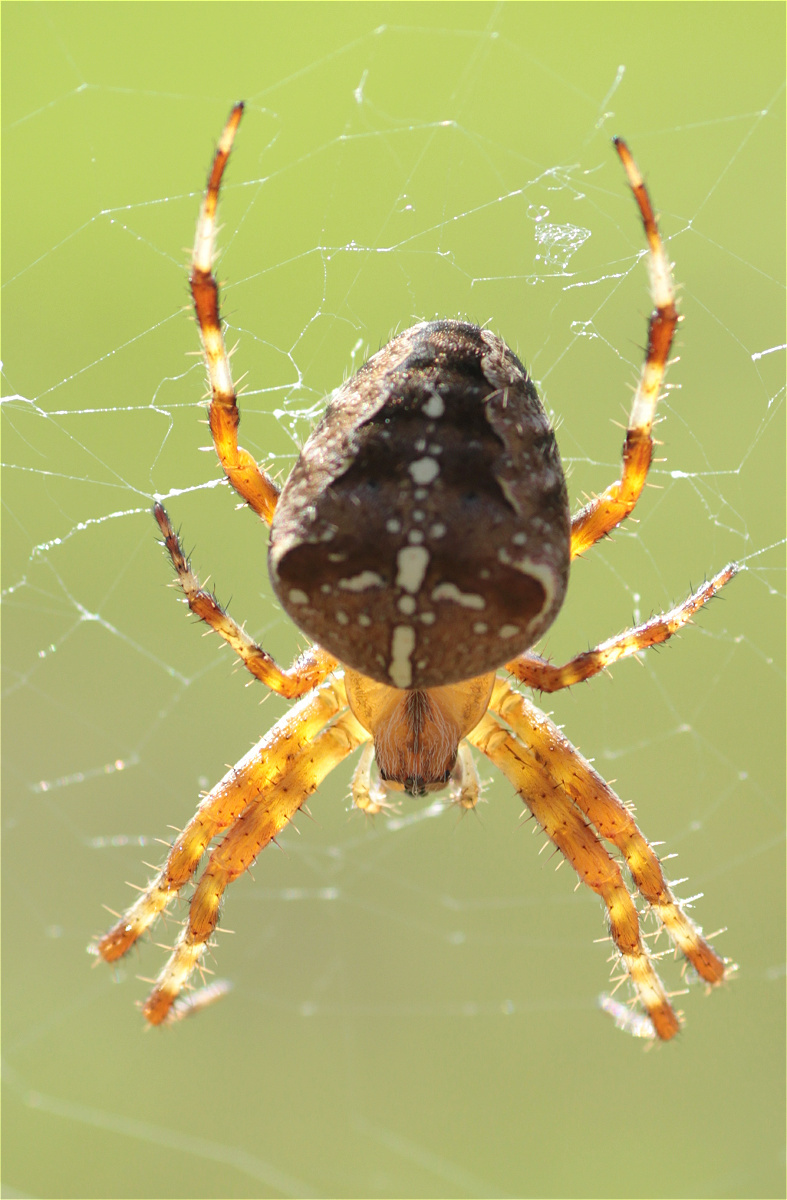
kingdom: Animalia
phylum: Arthropoda
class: Arachnida
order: Araneae
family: Araneidae
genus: Araneus
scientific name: Araneus diadematus
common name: Cross orbweaver
